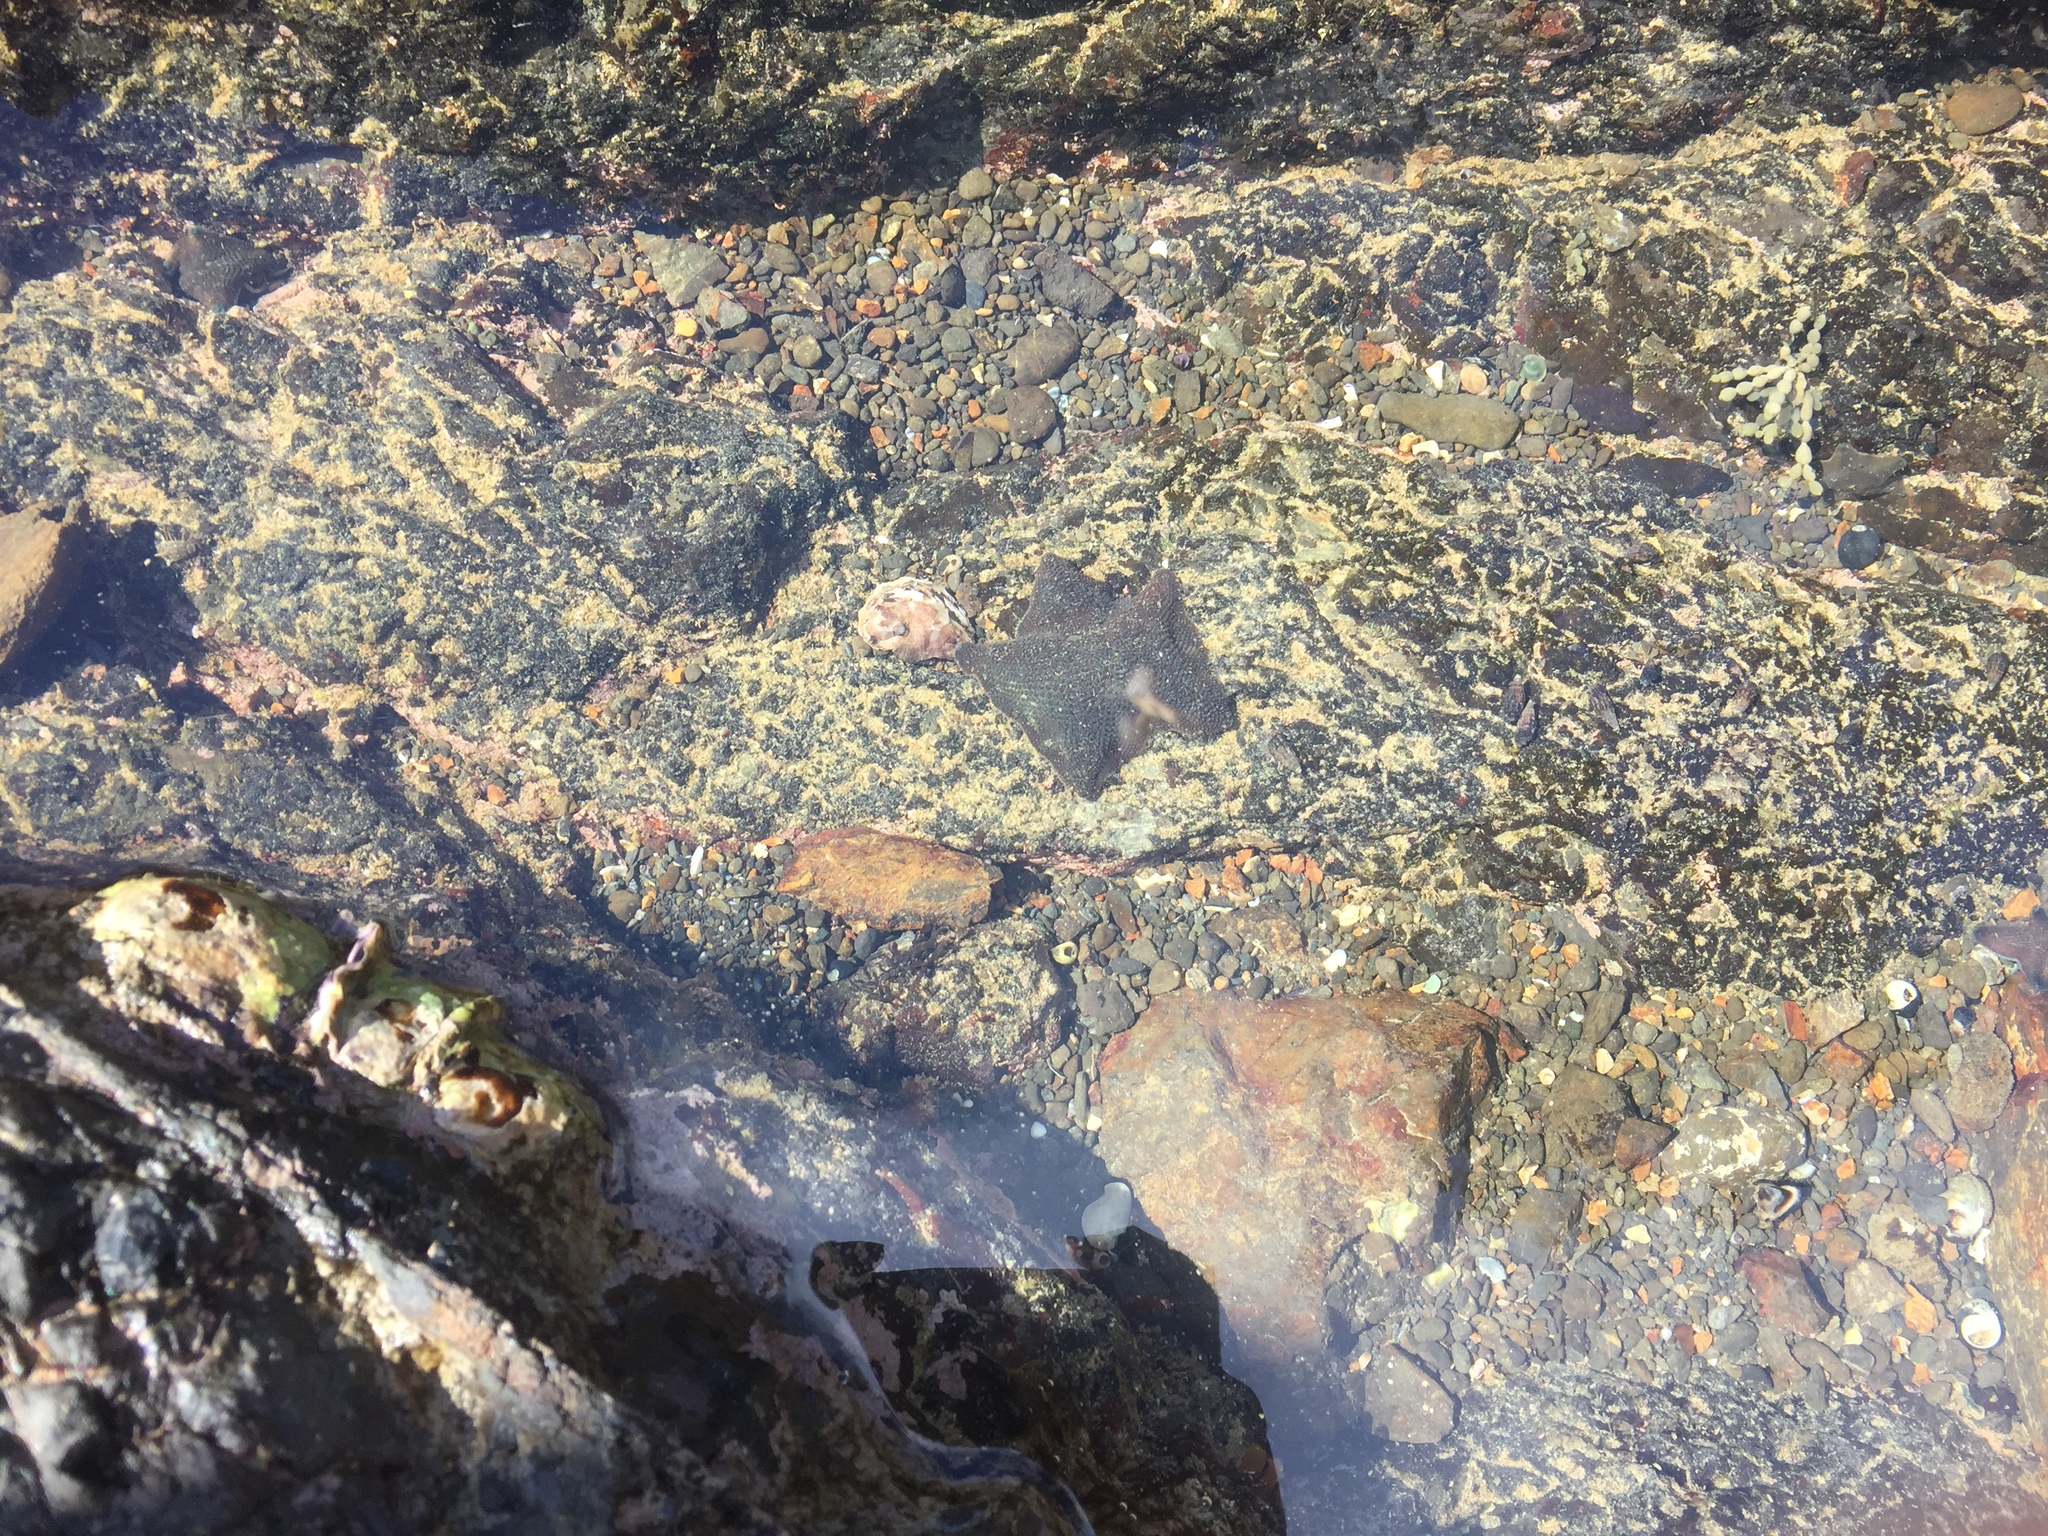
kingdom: Animalia
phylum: Echinodermata
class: Asteroidea
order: Valvatida
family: Asterinidae
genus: Patiriella
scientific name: Patiriella regularis
